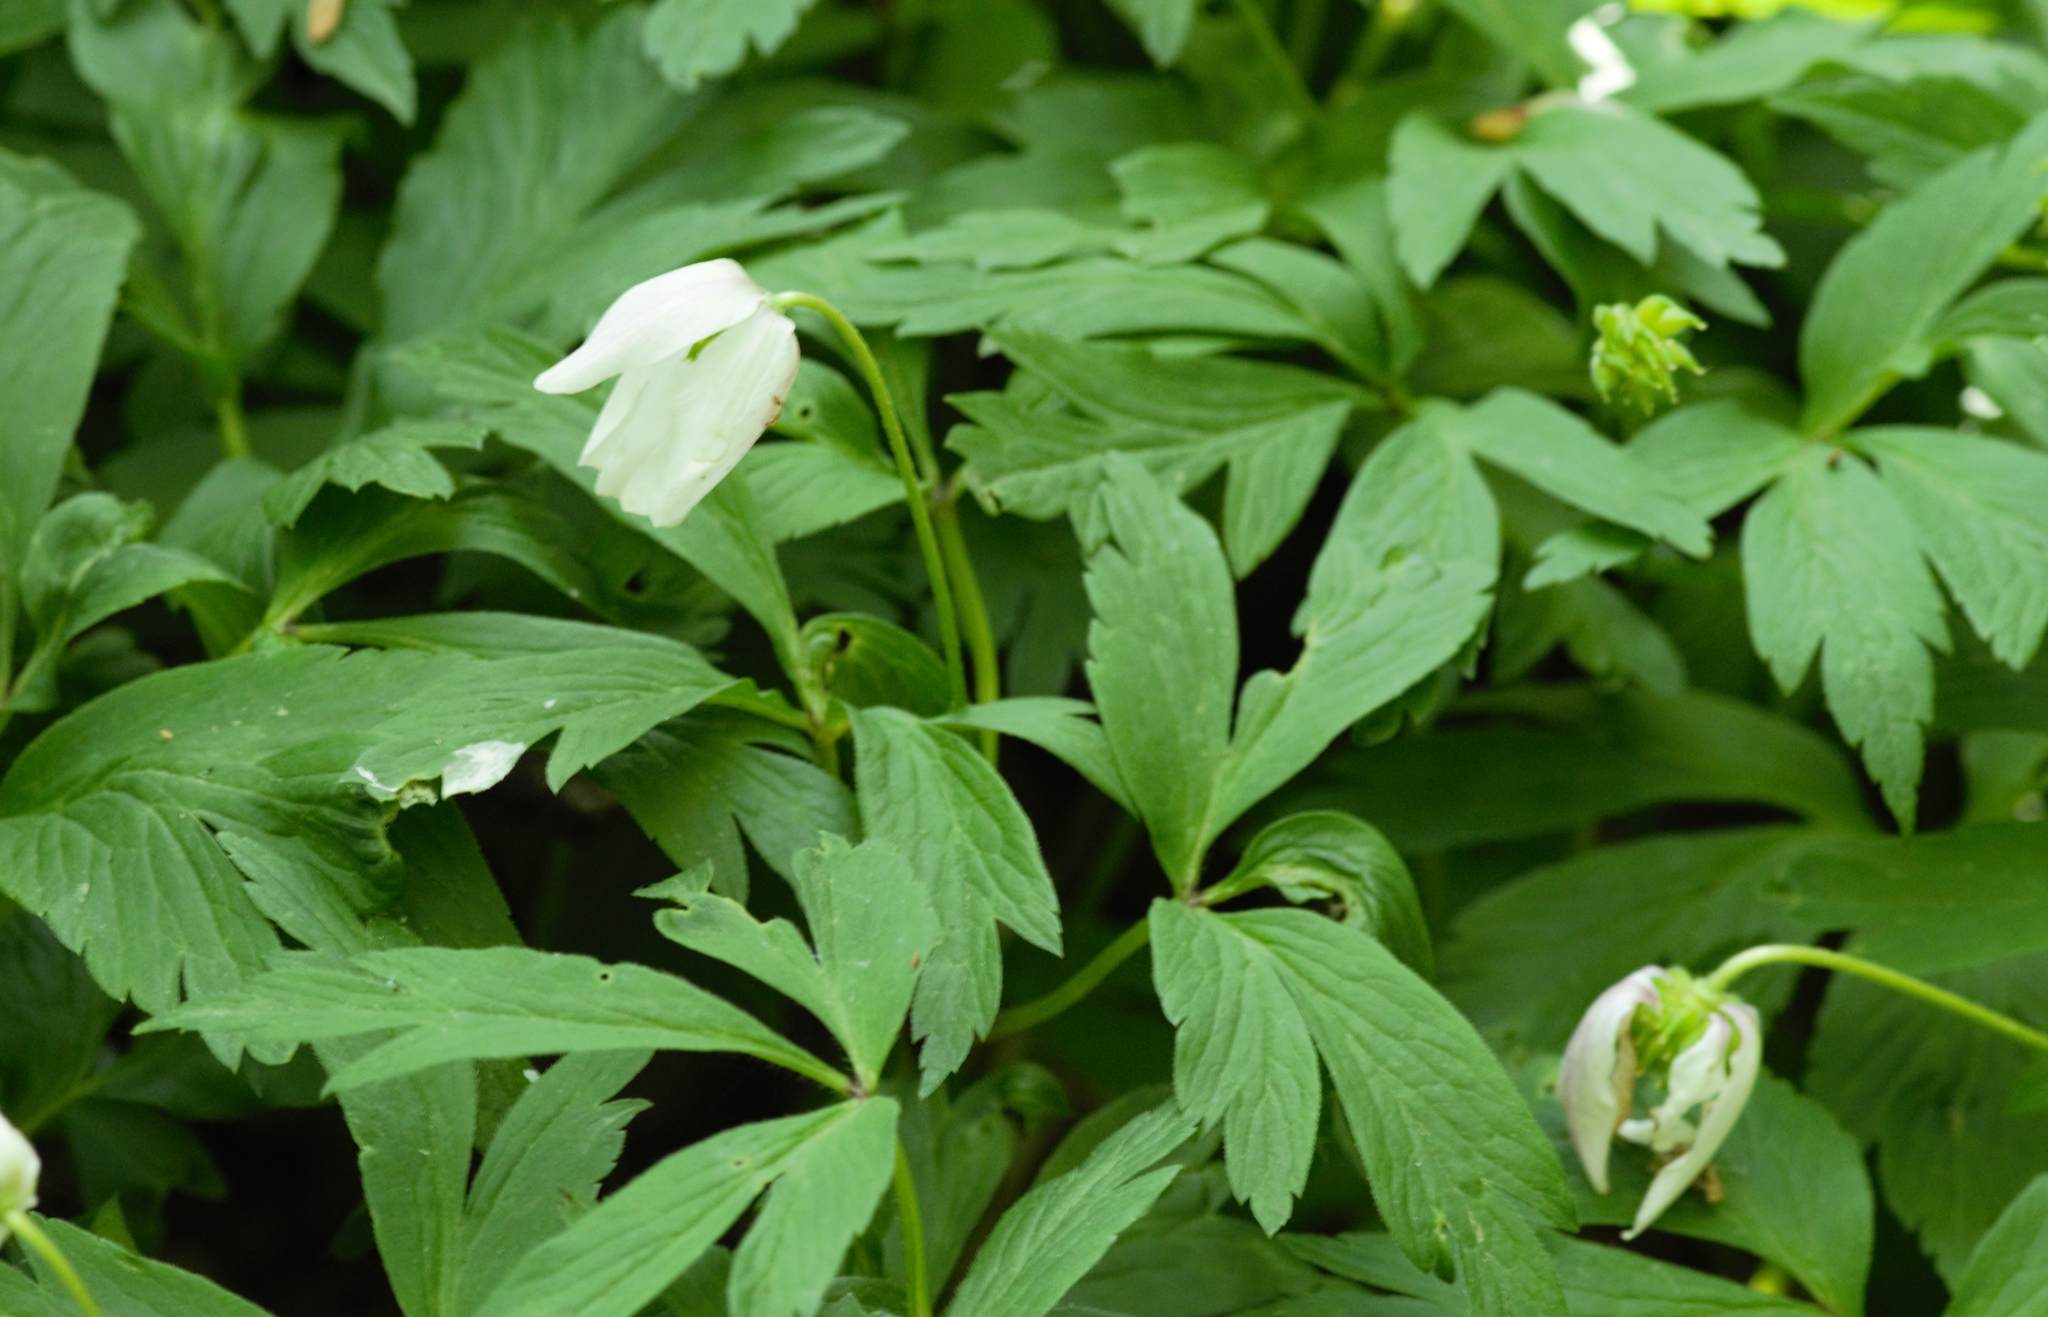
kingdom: Plantae
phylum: Tracheophyta
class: Magnoliopsida
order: Ranunculales
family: Ranunculaceae
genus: Anemone
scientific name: Anemone nemorosa
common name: Wood anemone
